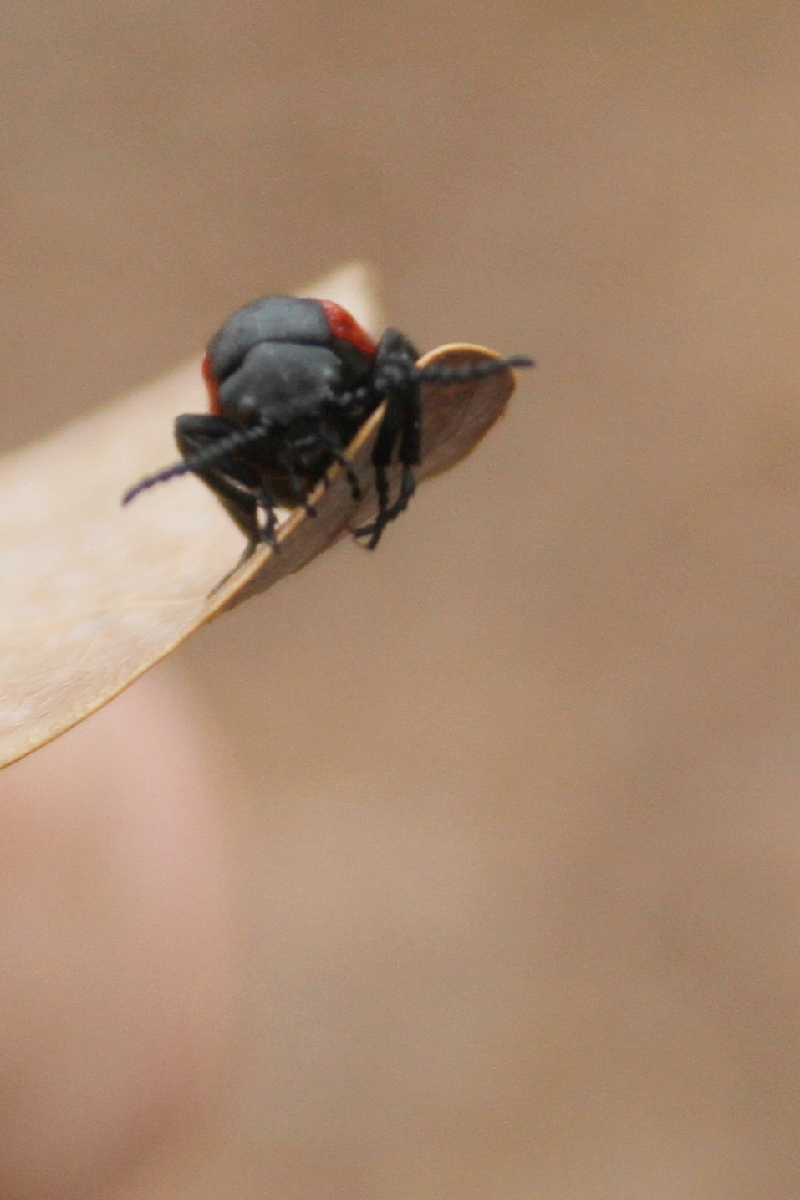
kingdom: Animalia
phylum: Arthropoda
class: Insecta
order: Coleoptera
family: Meloidae
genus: Tricrania
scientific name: Tricrania sanguinipennis
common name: Blood-winged blister beetle
